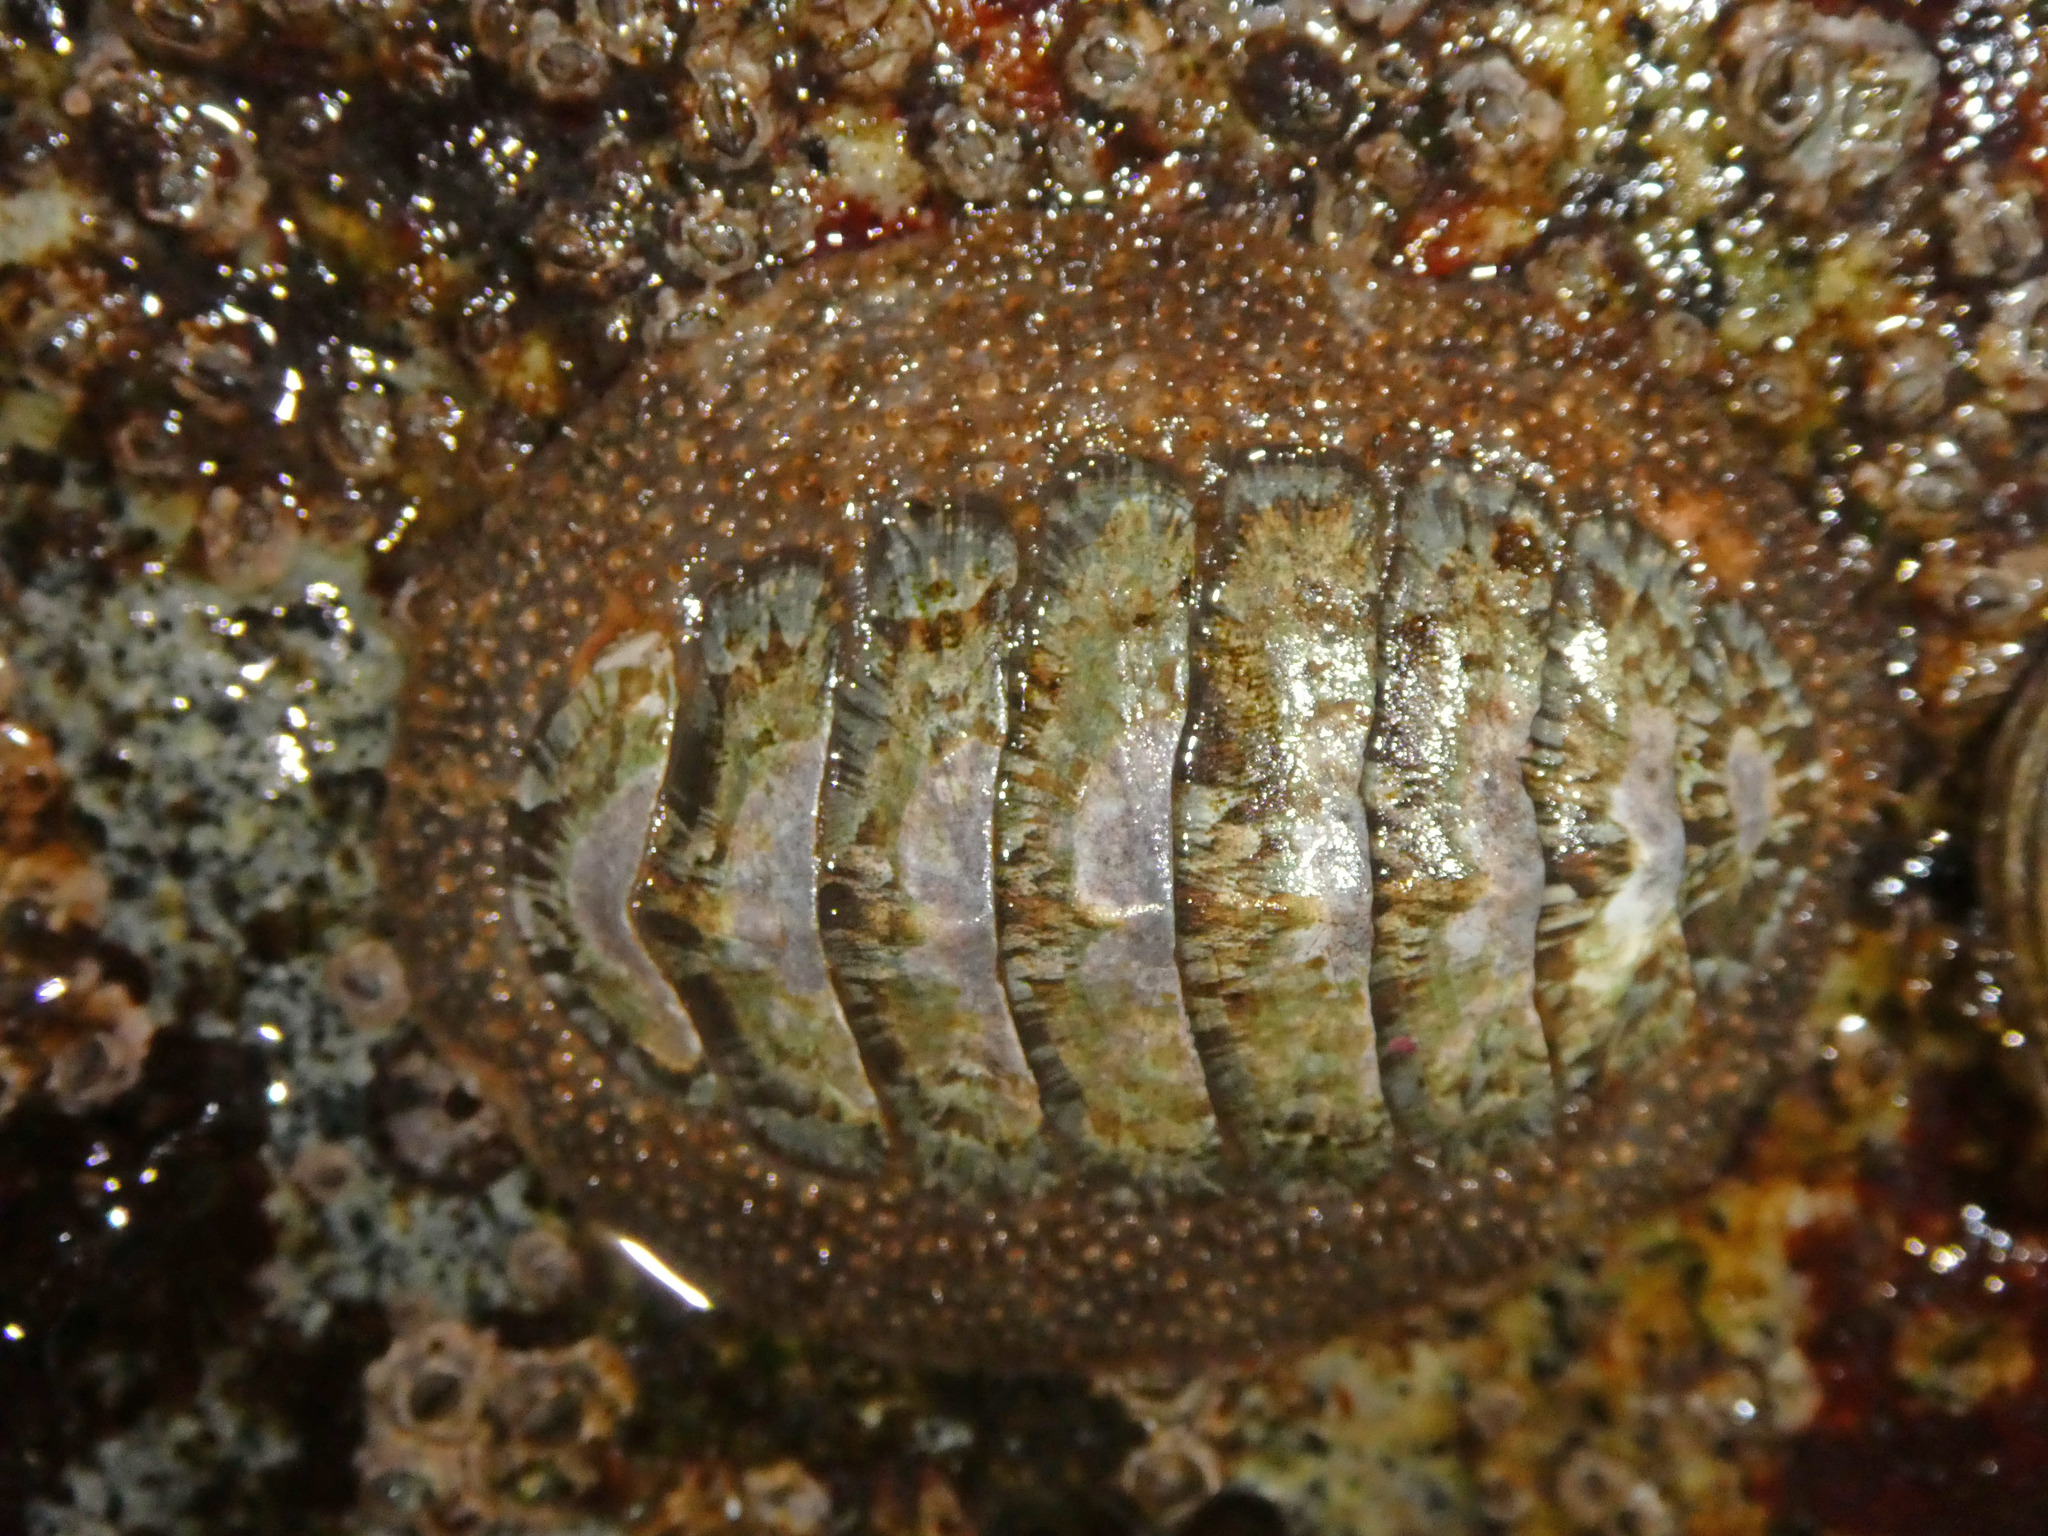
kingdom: Animalia
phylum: Mollusca
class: Polyplacophora
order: Chitonida
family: Mopaliidae
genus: Mopalia
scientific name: Mopalia lignosa
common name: Woody chiton
